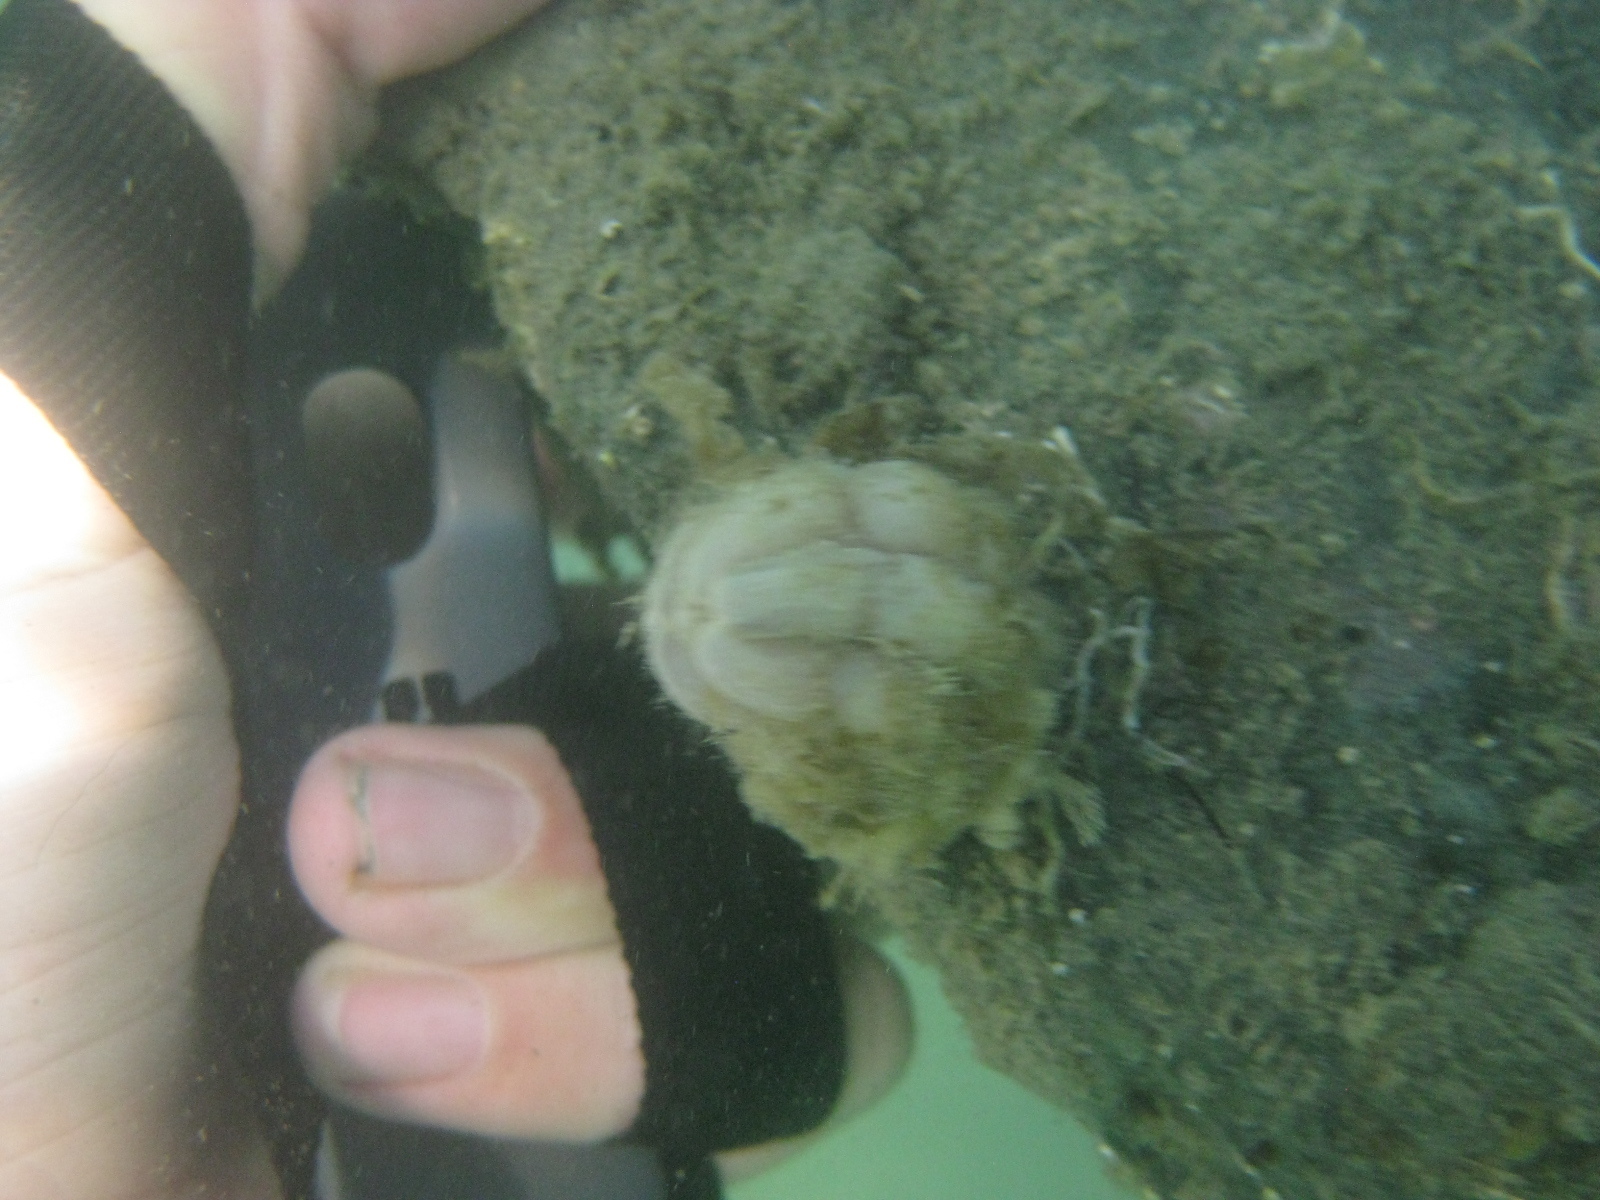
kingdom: Animalia
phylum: Chordata
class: Ascidiacea
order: Stolidobranchia
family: Styelidae
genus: Styela
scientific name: Styela plicata
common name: Pleated tunicate
